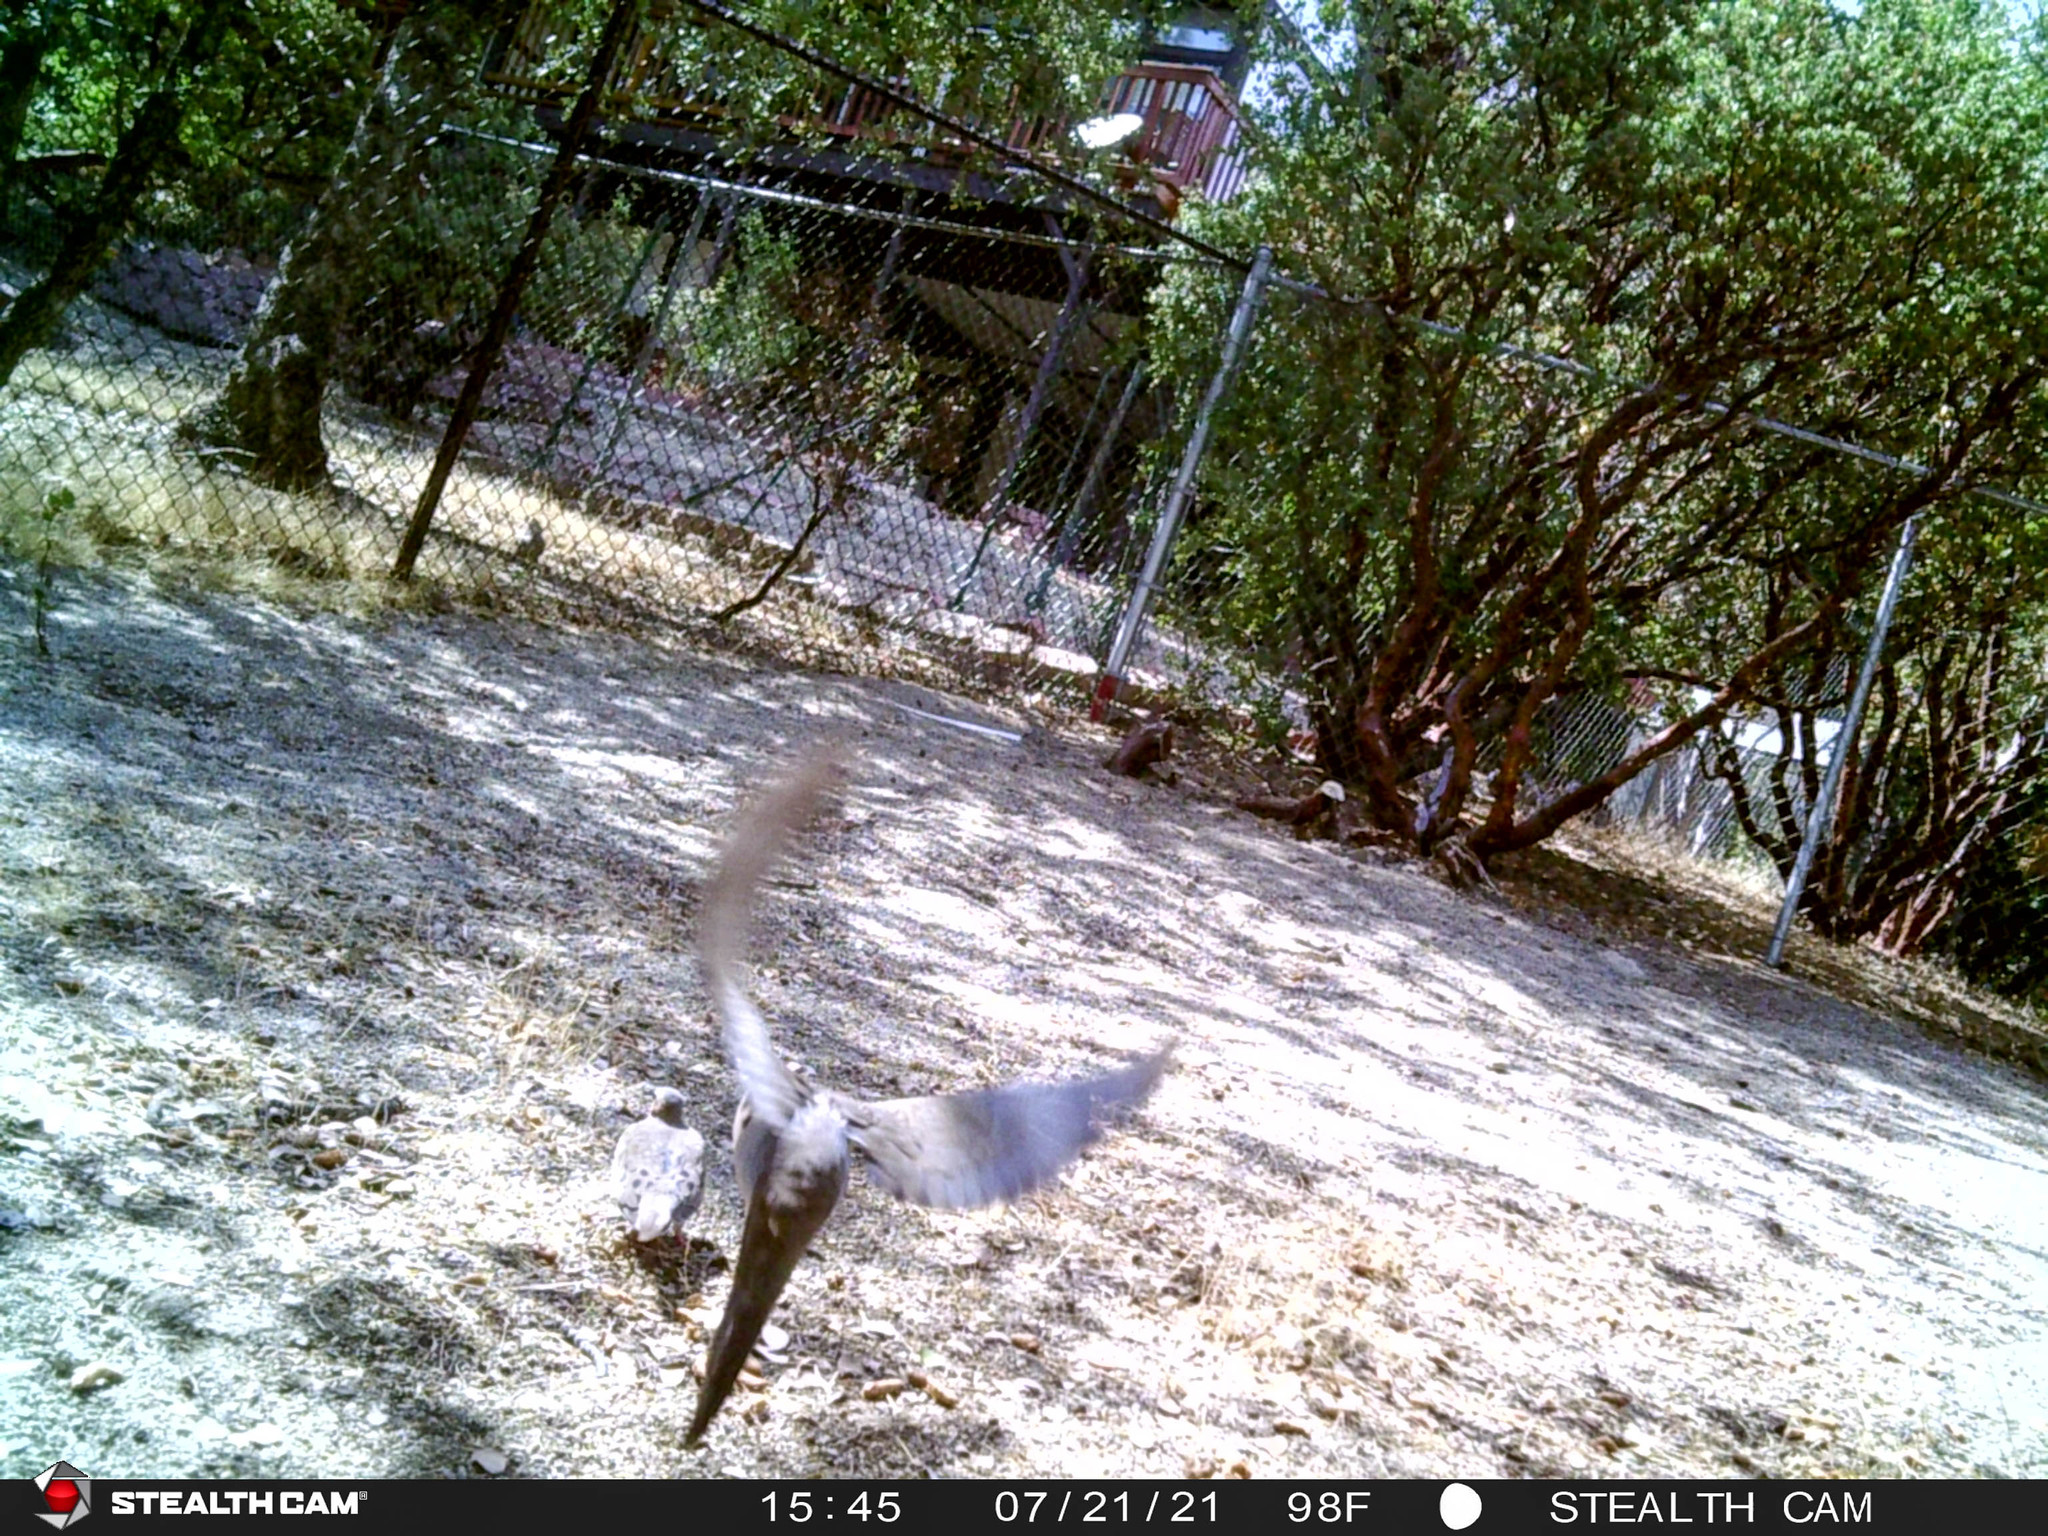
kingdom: Animalia
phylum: Chordata
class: Aves
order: Columbiformes
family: Columbidae
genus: Zenaida
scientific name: Zenaida macroura
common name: Mourning dove
